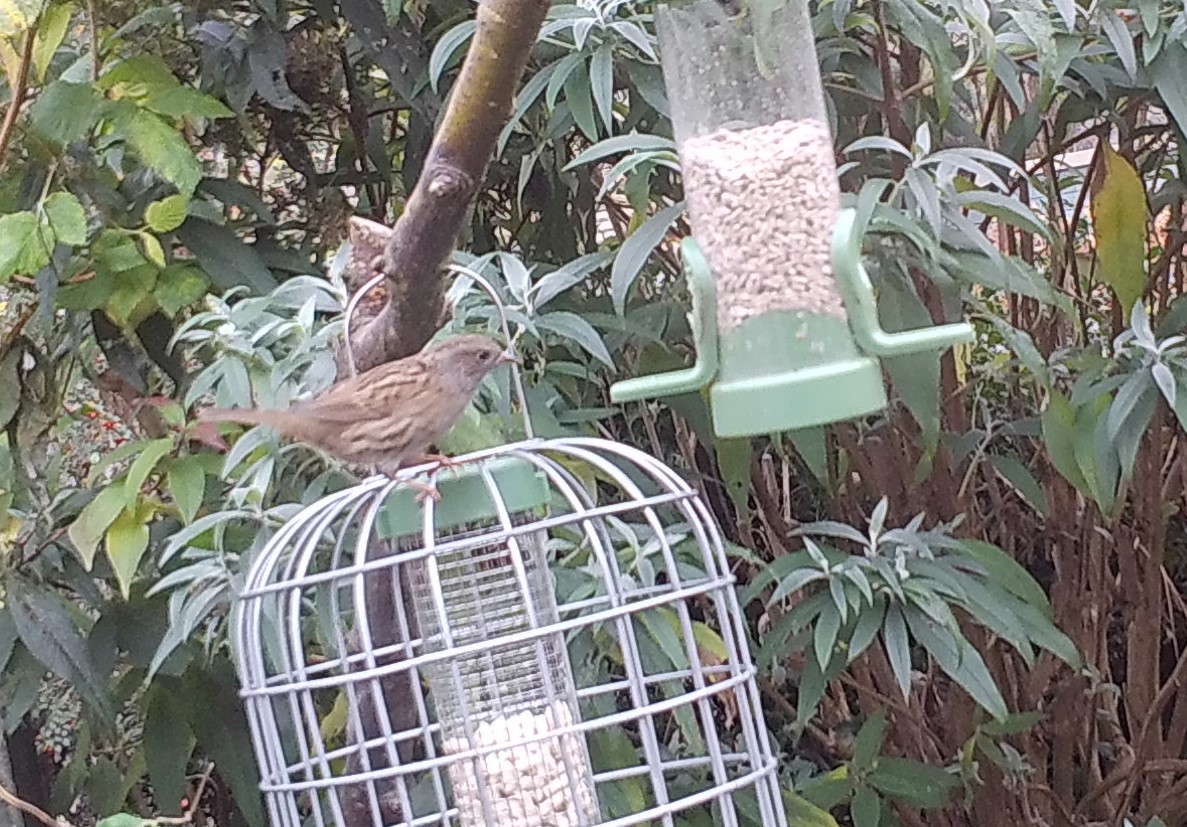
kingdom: Animalia
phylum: Chordata
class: Aves
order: Passeriformes
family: Prunellidae
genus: Prunella
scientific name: Prunella modularis
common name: Dunnock
